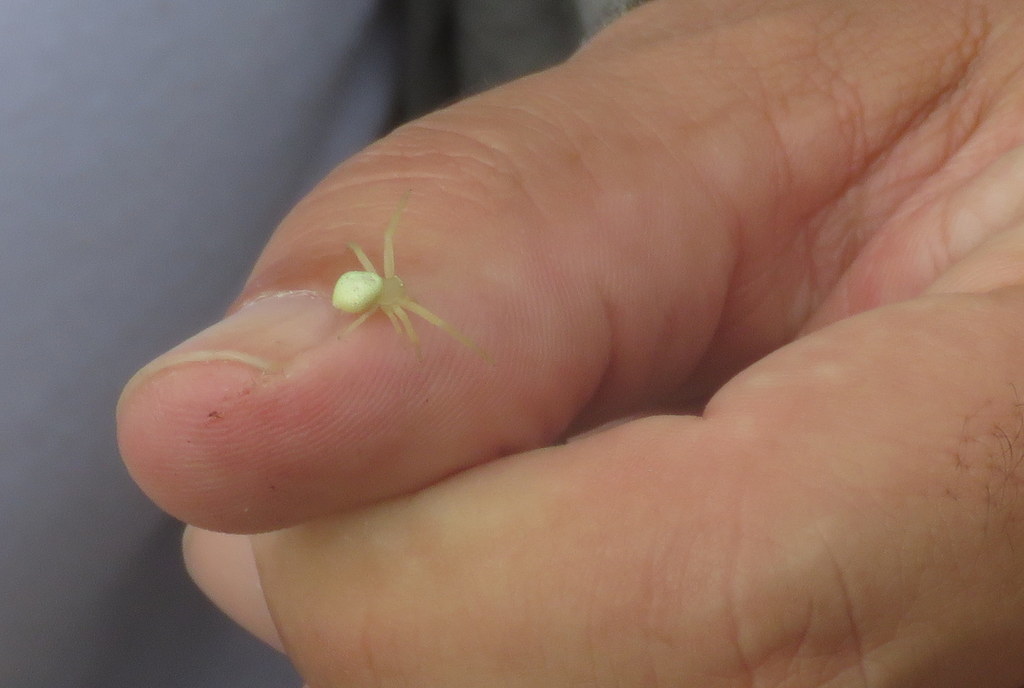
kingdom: Animalia
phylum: Arthropoda
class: Arachnida
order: Araneae
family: Thomisidae
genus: Misumenops
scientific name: Misumenops
